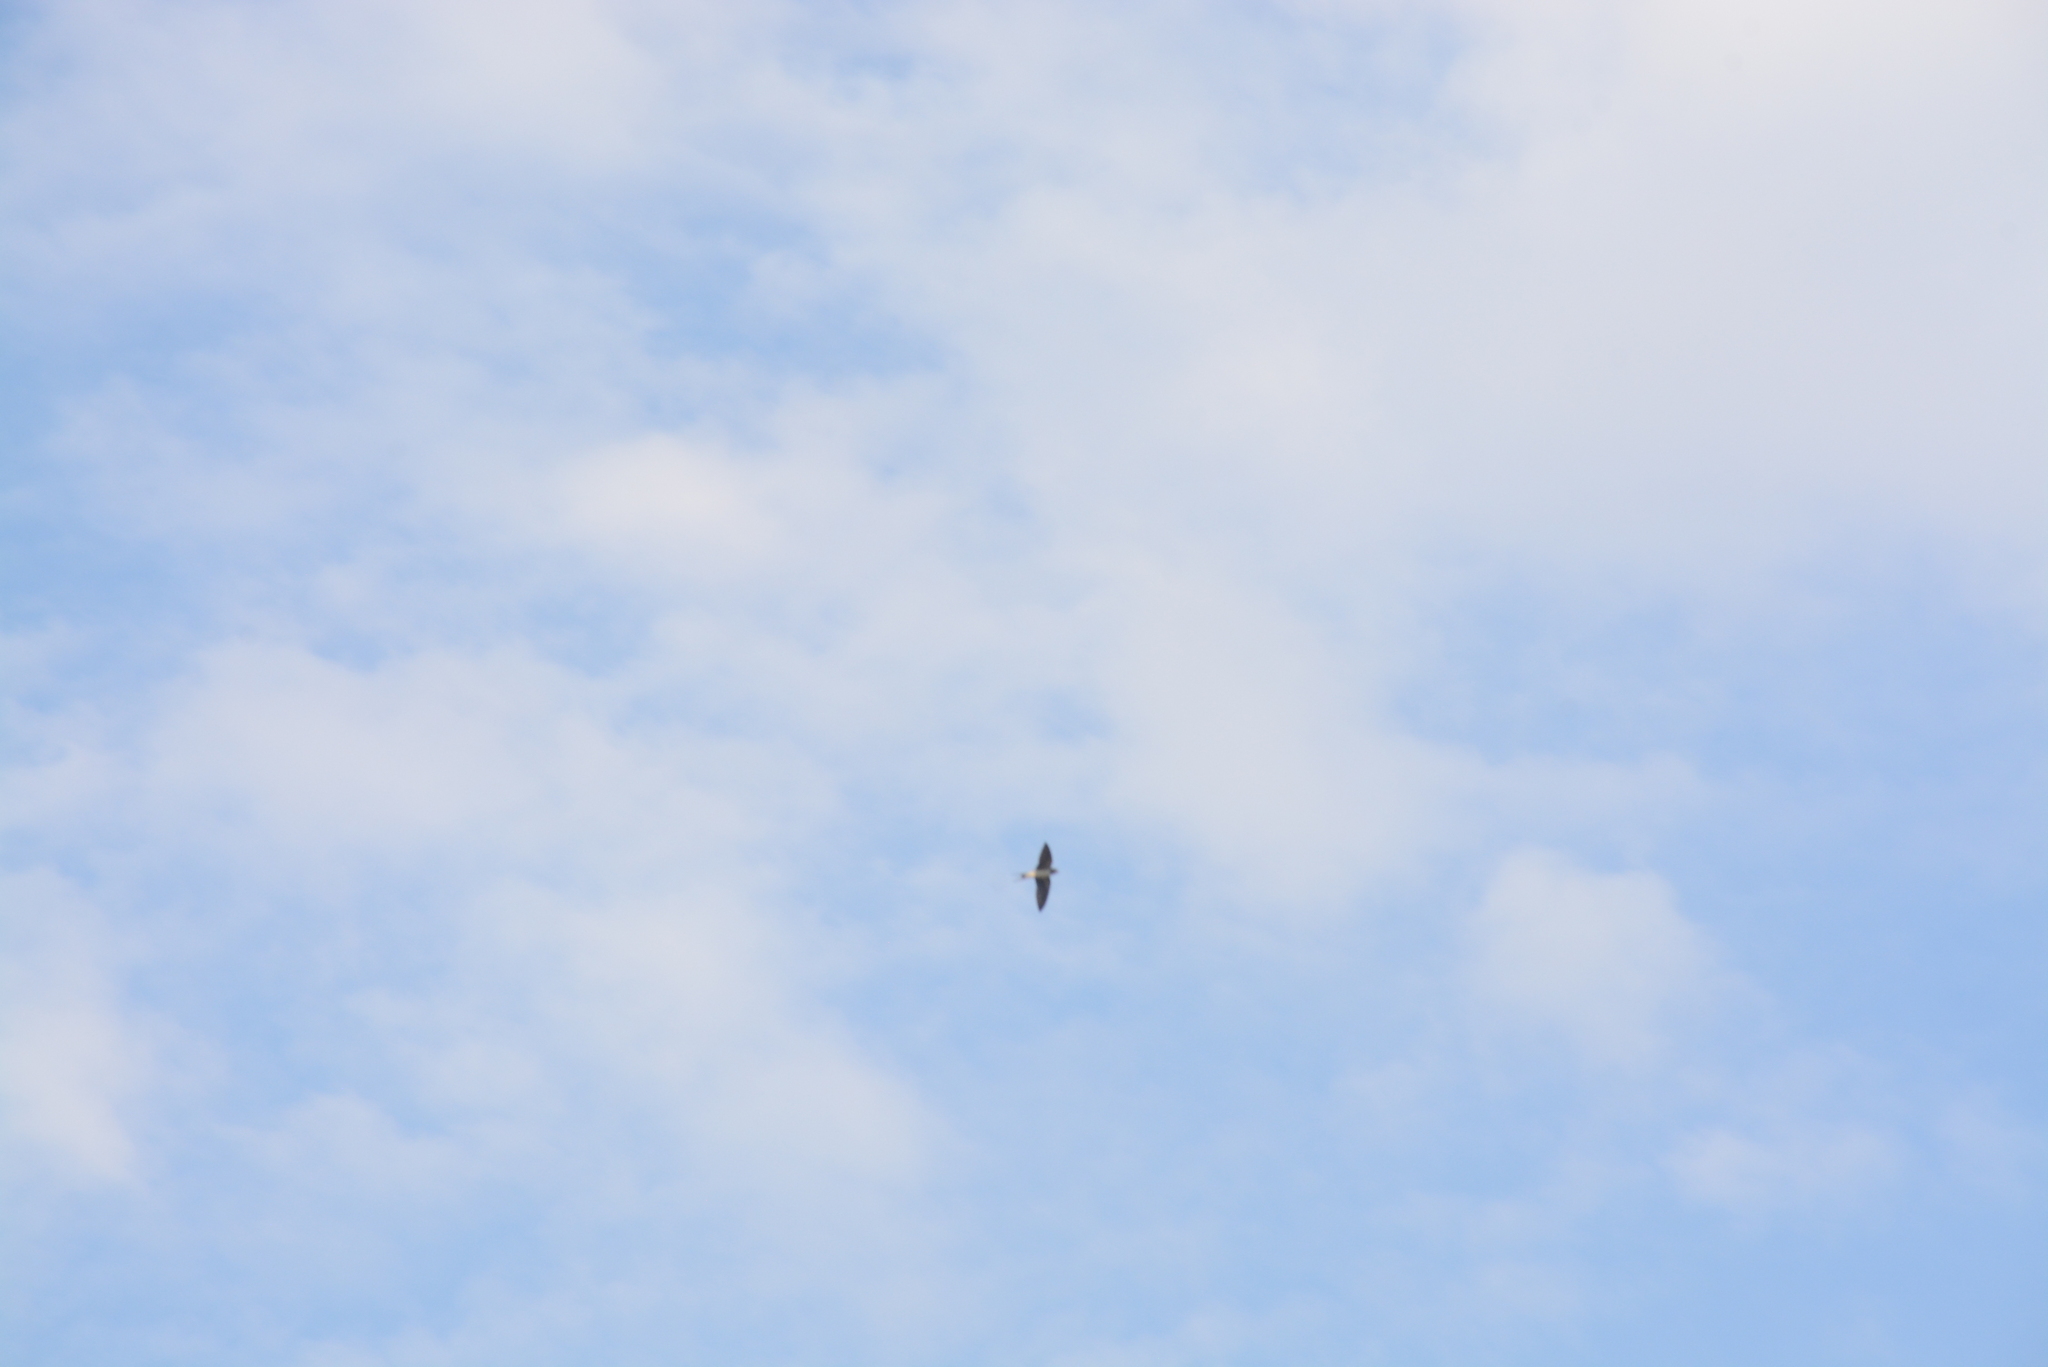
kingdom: Animalia
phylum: Chordata
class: Aves
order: Passeriformes
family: Hirundinidae
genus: Hirundo
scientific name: Hirundo rustica
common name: Barn swallow
